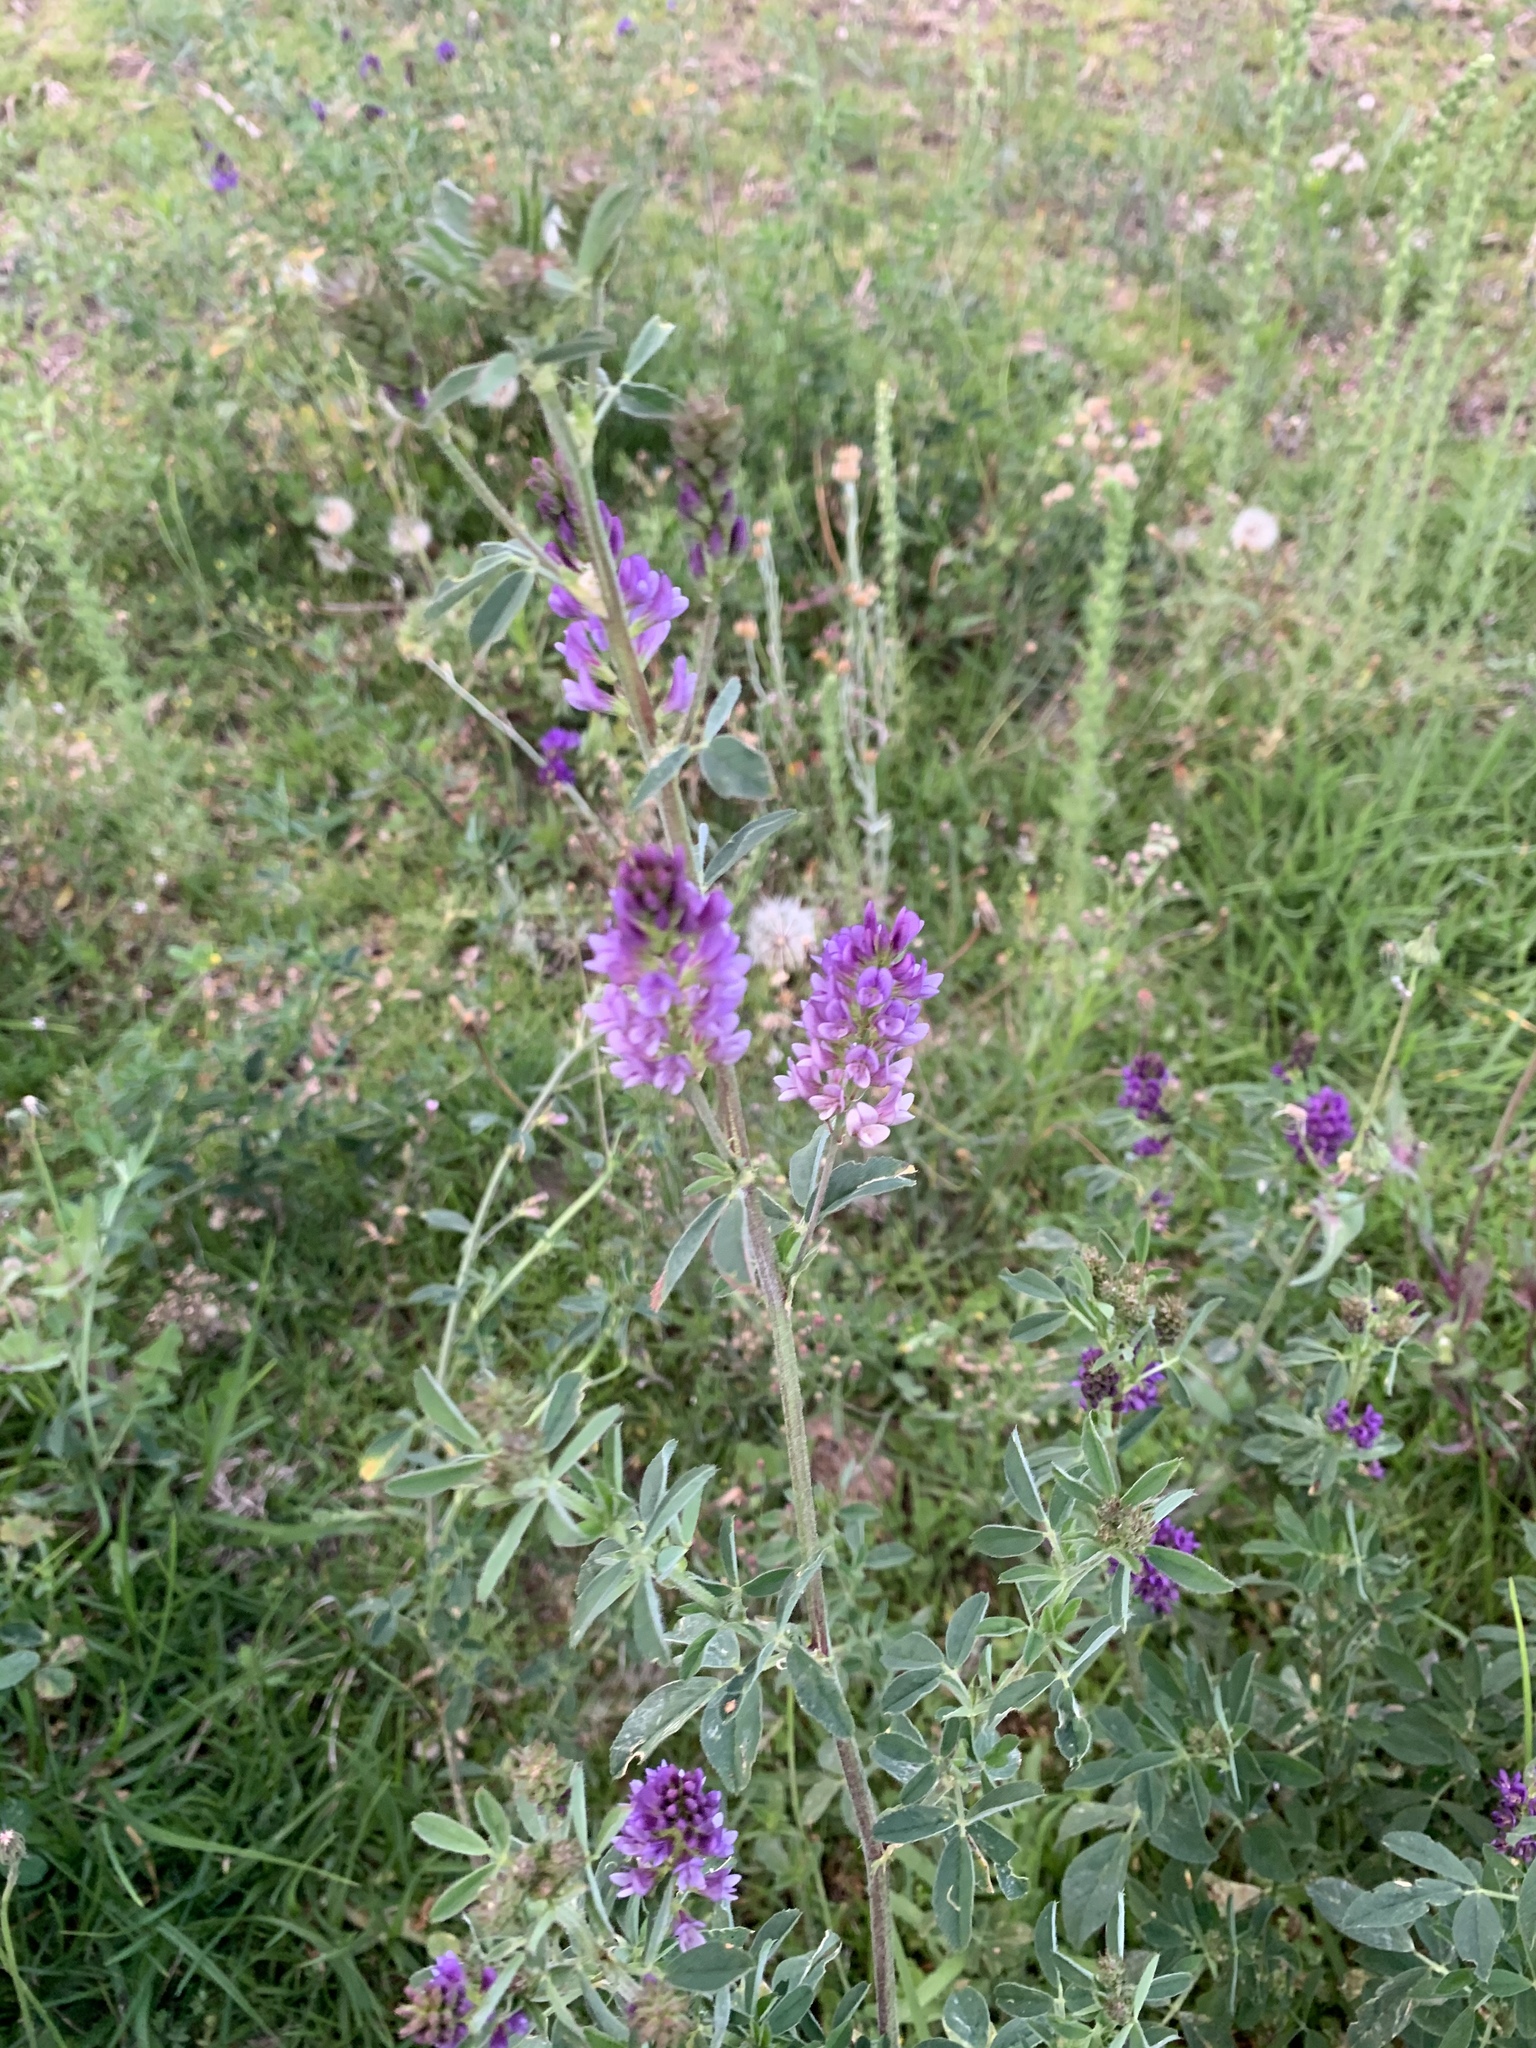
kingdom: Plantae
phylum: Tracheophyta
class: Magnoliopsida
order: Fabales
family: Fabaceae
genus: Medicago
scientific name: Medicago sativa
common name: Alfalfa
